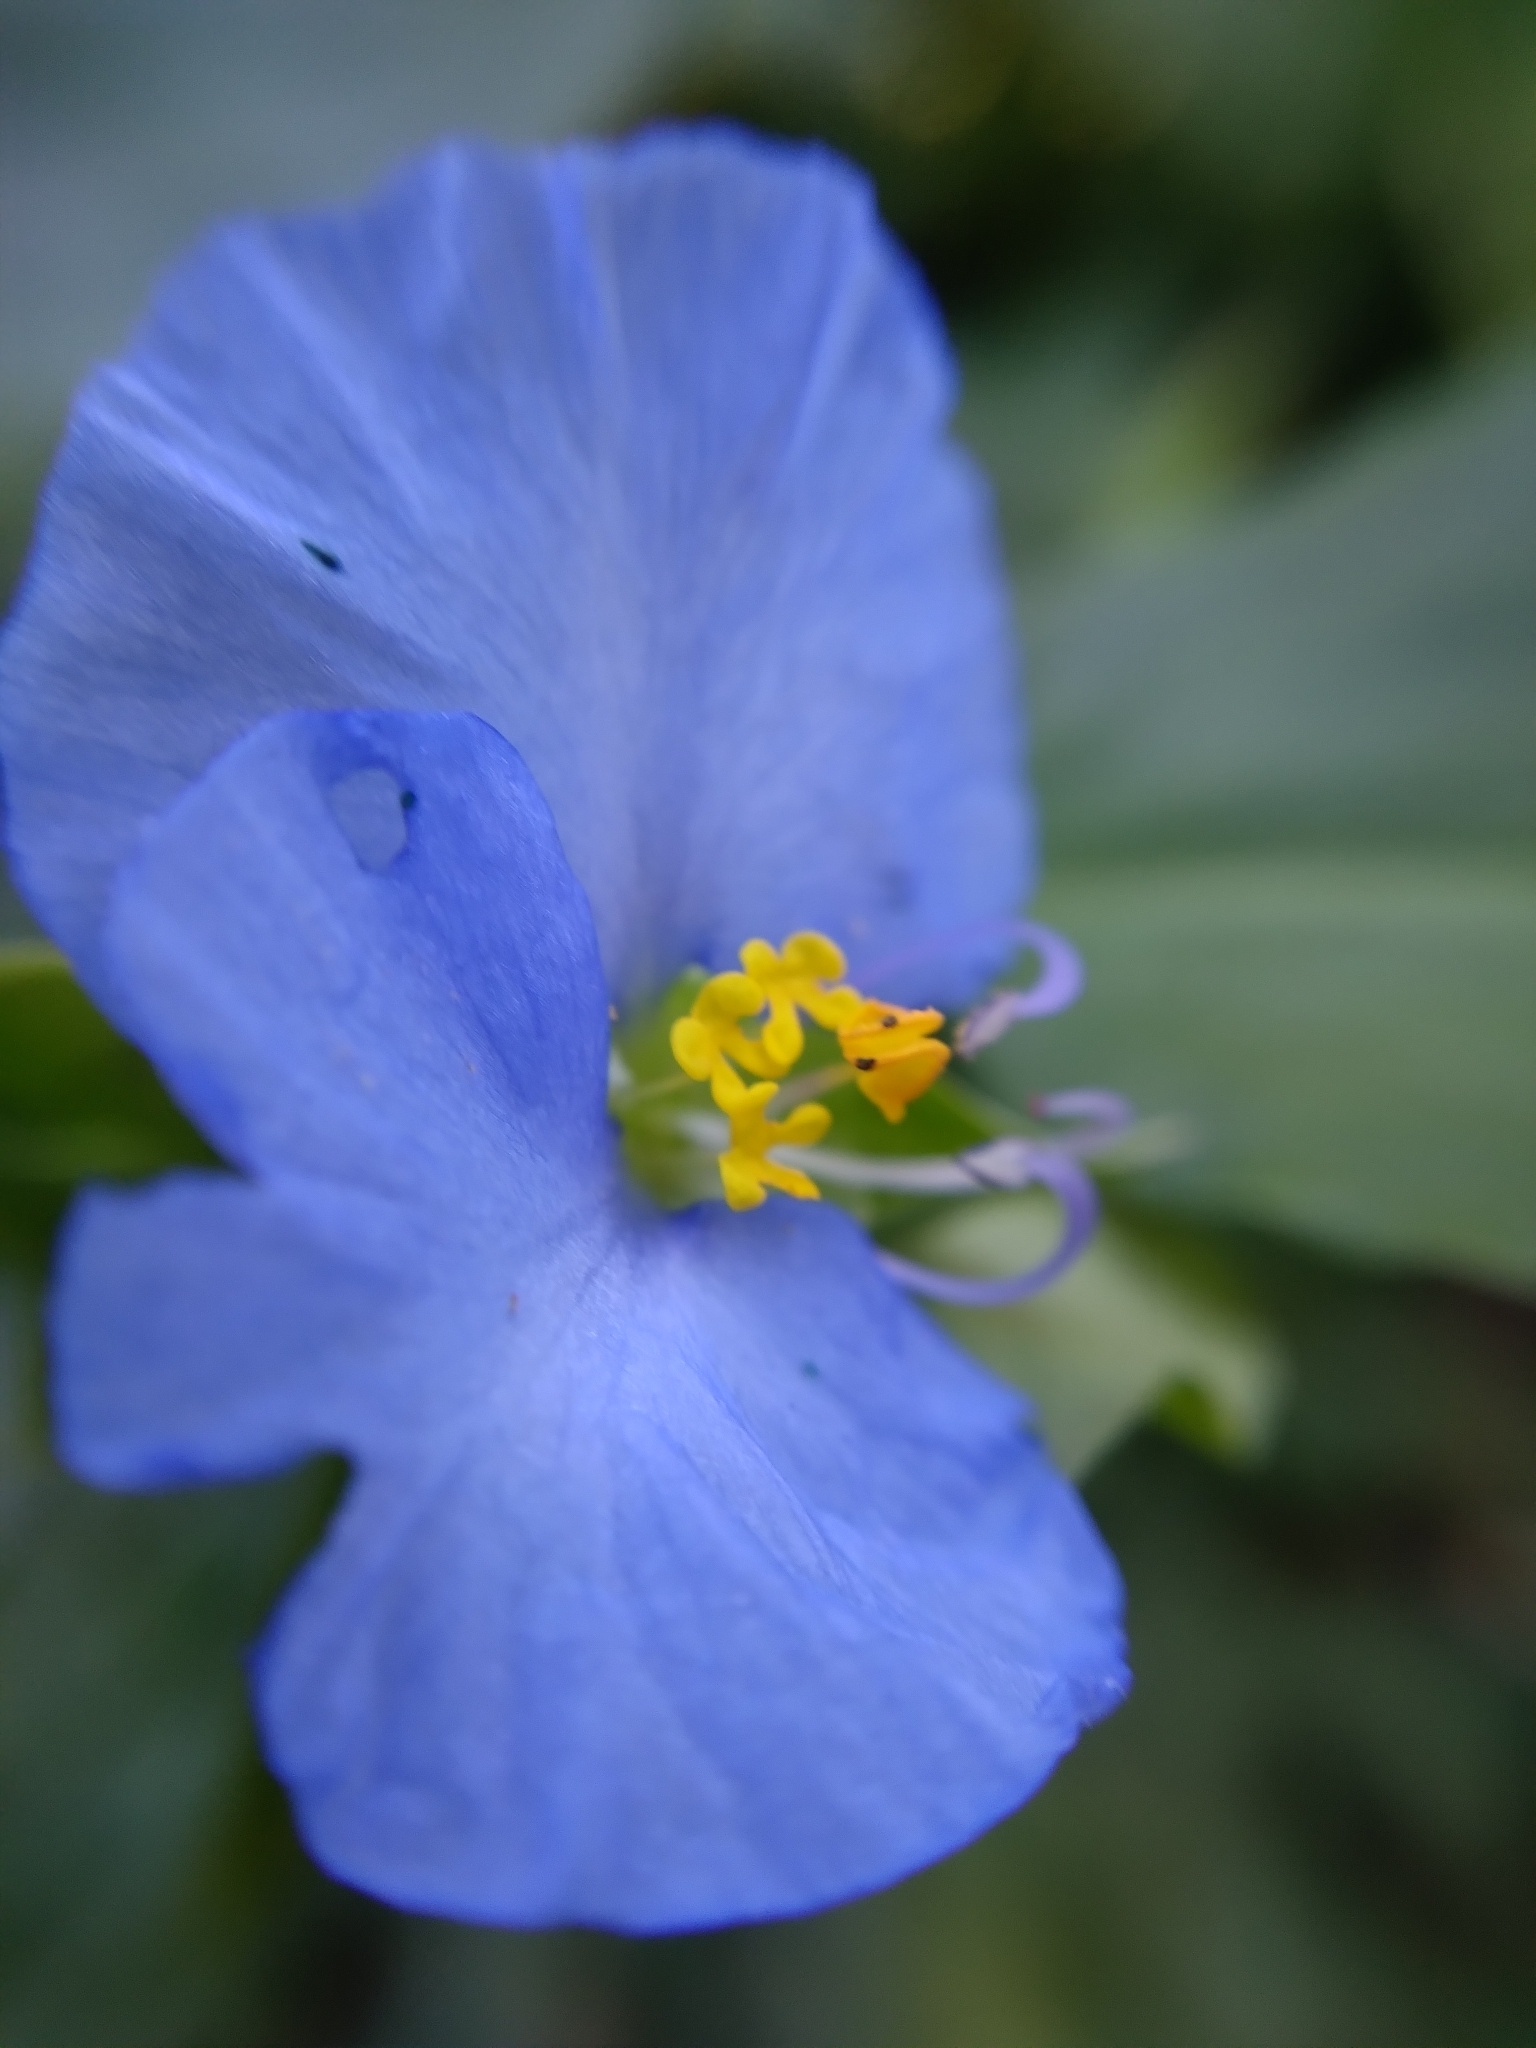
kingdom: Plantae
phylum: Tracheophyta
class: Liliopsida
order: Commelinales
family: Commelinaceae
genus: Commelina
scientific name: Commelina erecta
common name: Blousel blommetjie
